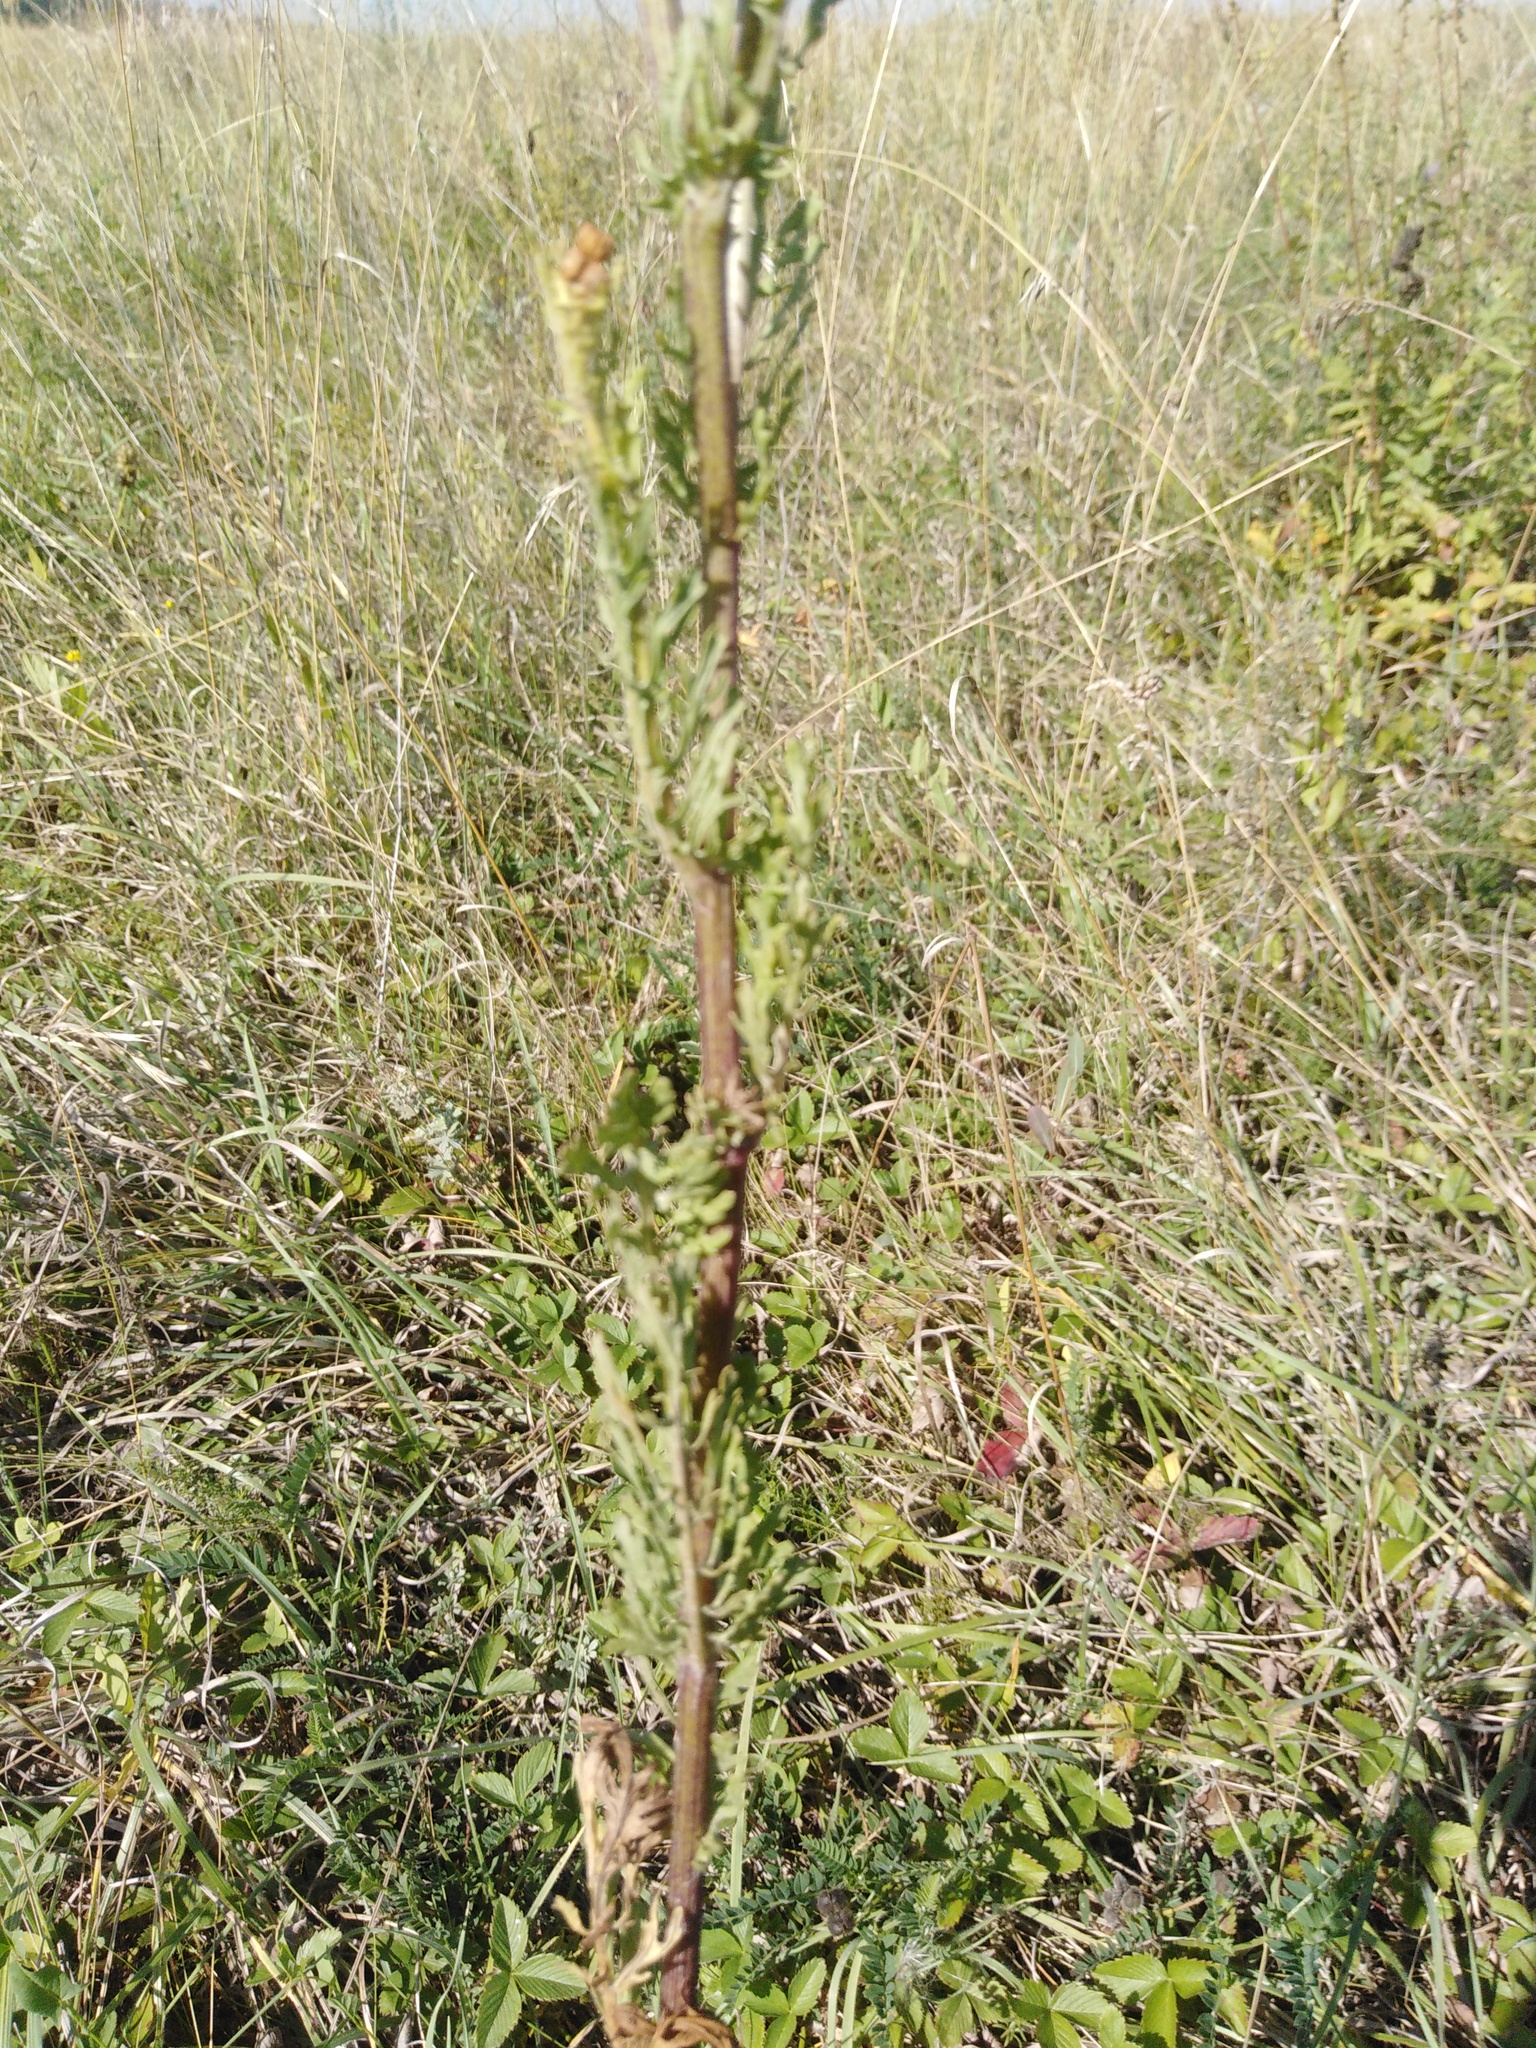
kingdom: Plantae
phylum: Tracheophyta
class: Magnoliopsida
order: Asterales
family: Asteraceae
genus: Jacobaea
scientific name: Jacobaea vulgaris
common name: Stinking willie
